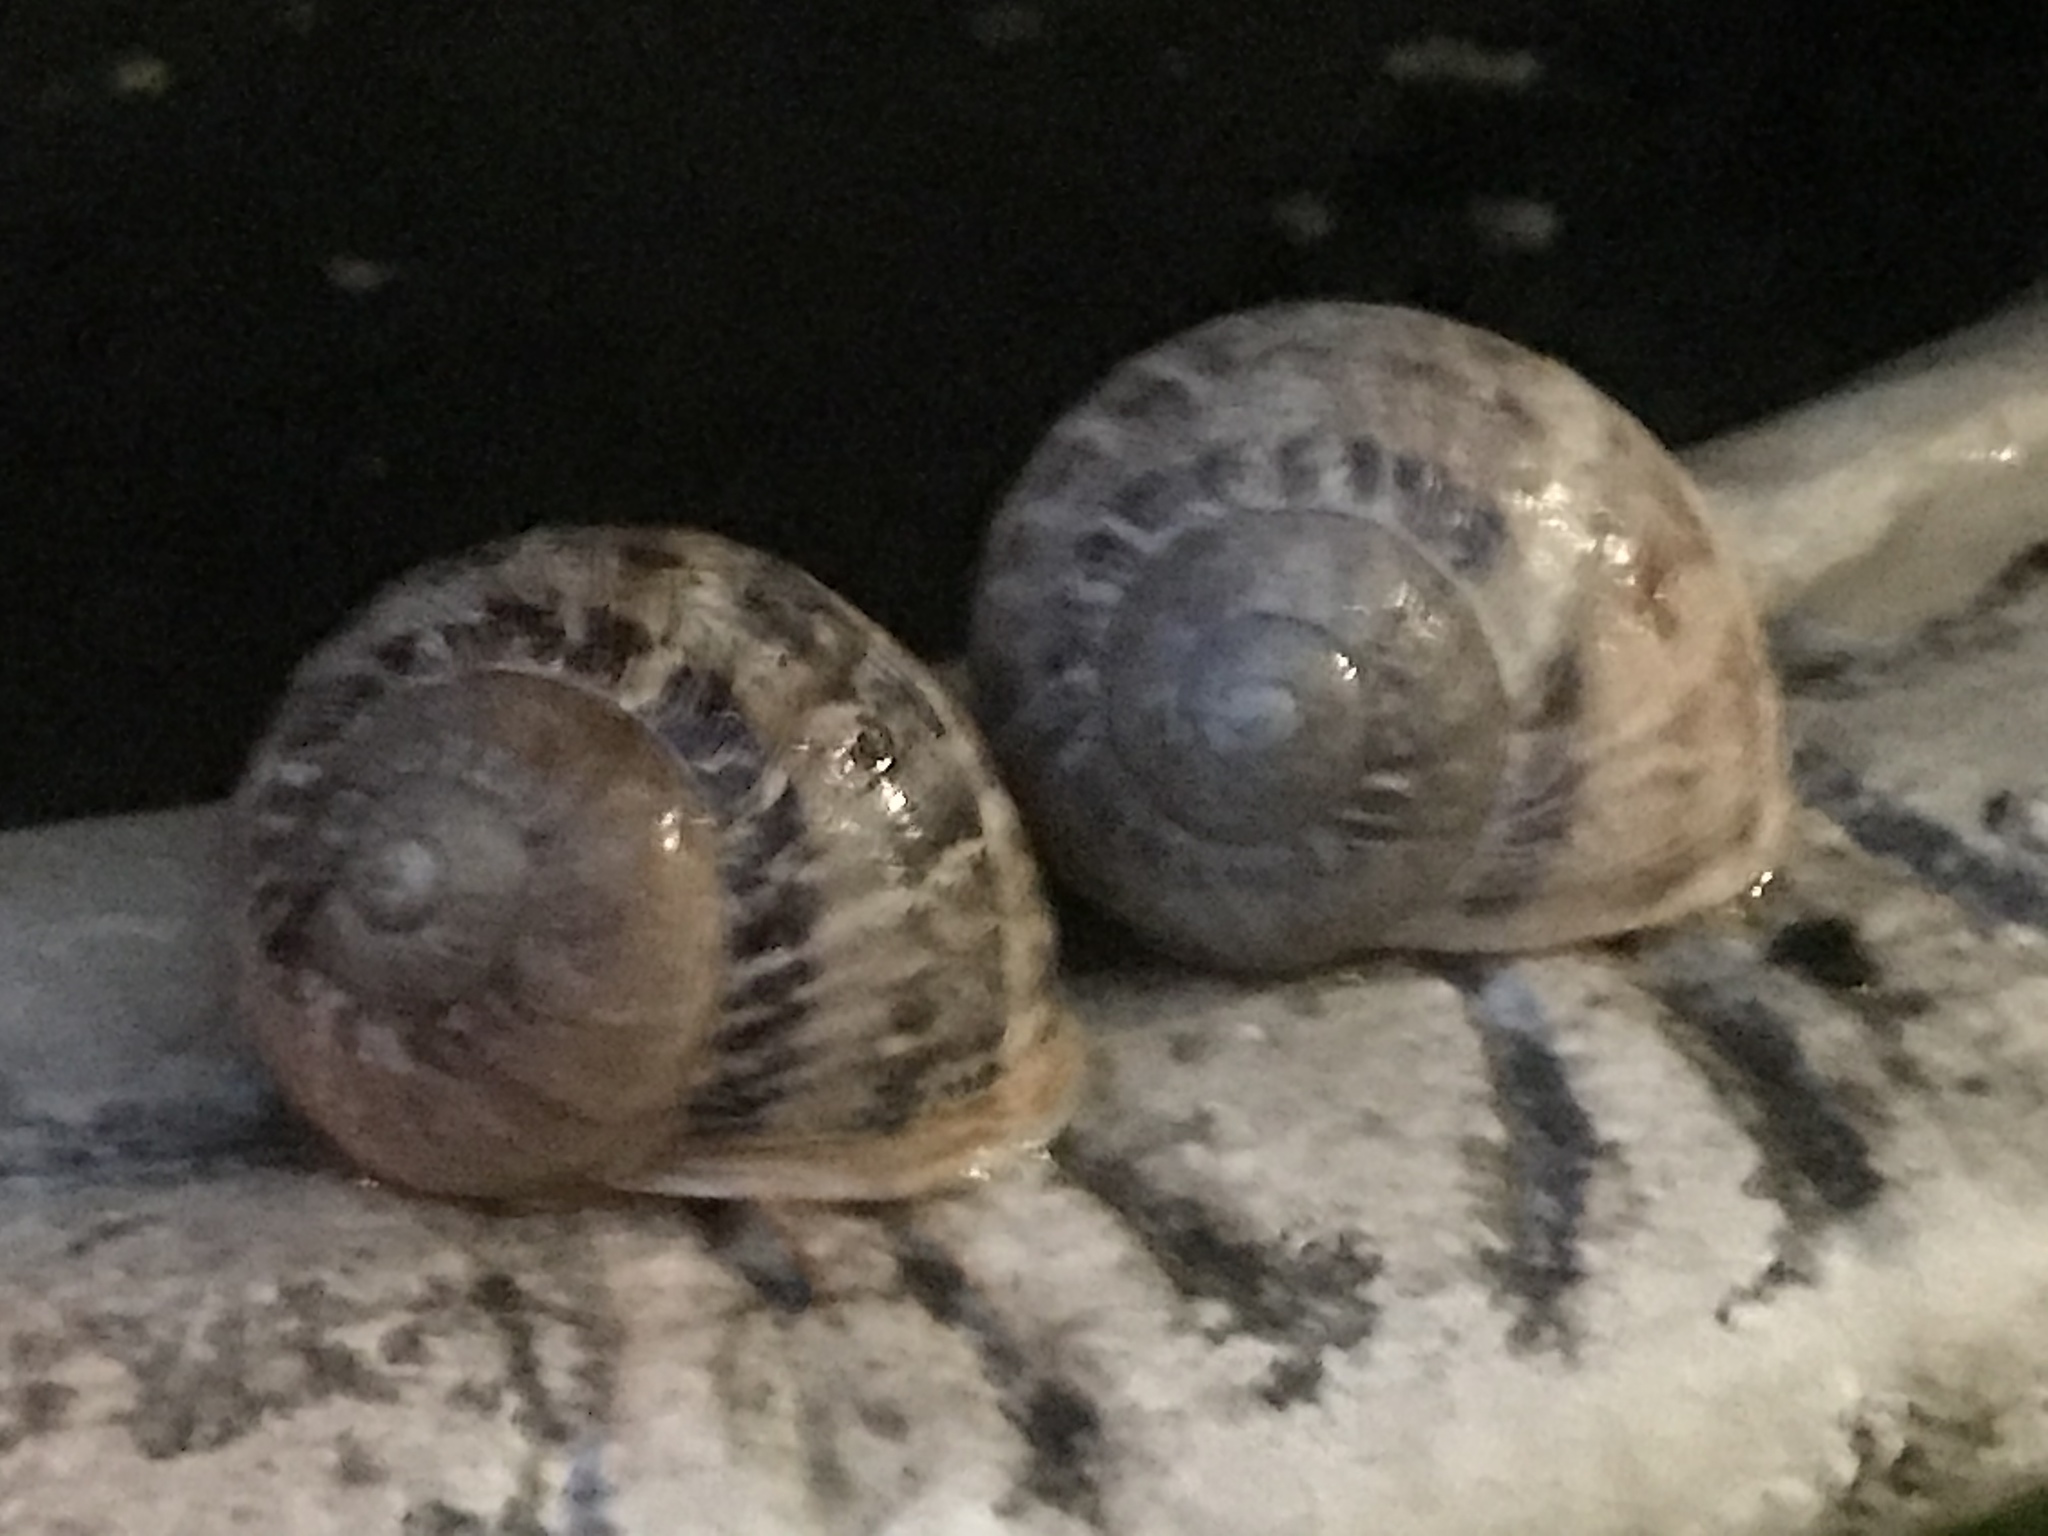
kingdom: Animalia
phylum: Mollusca
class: Gastropoda
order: Stylommatophora
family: Helicidae
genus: Cornu
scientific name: Cornu aspersum
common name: Brown garden snail
